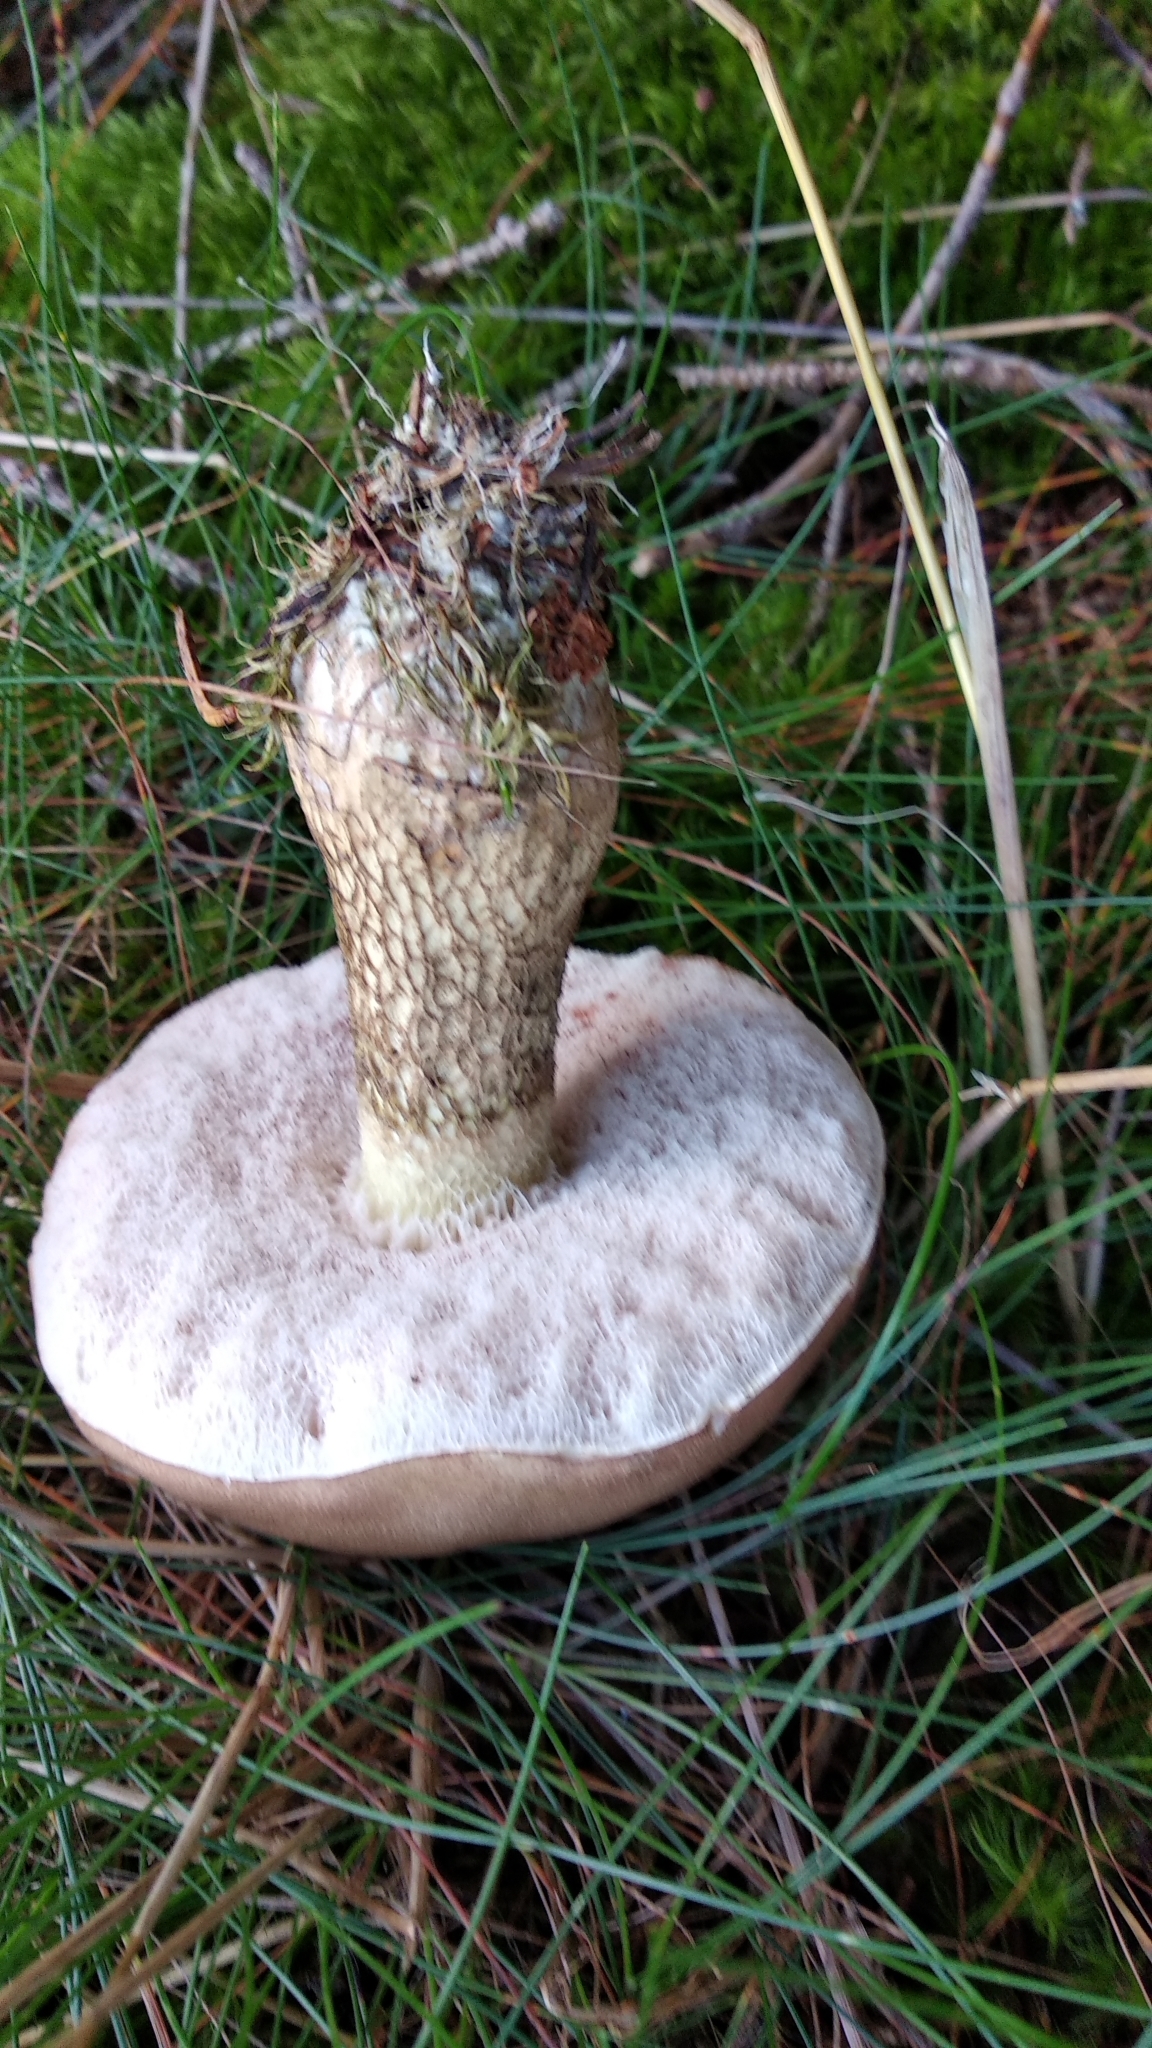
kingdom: Fungi
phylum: Basidiomycota
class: Agaricomycetes
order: Boletales
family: Boletaceae
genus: Tylopilus
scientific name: Tylopilus felleus
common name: Bitter bolete
